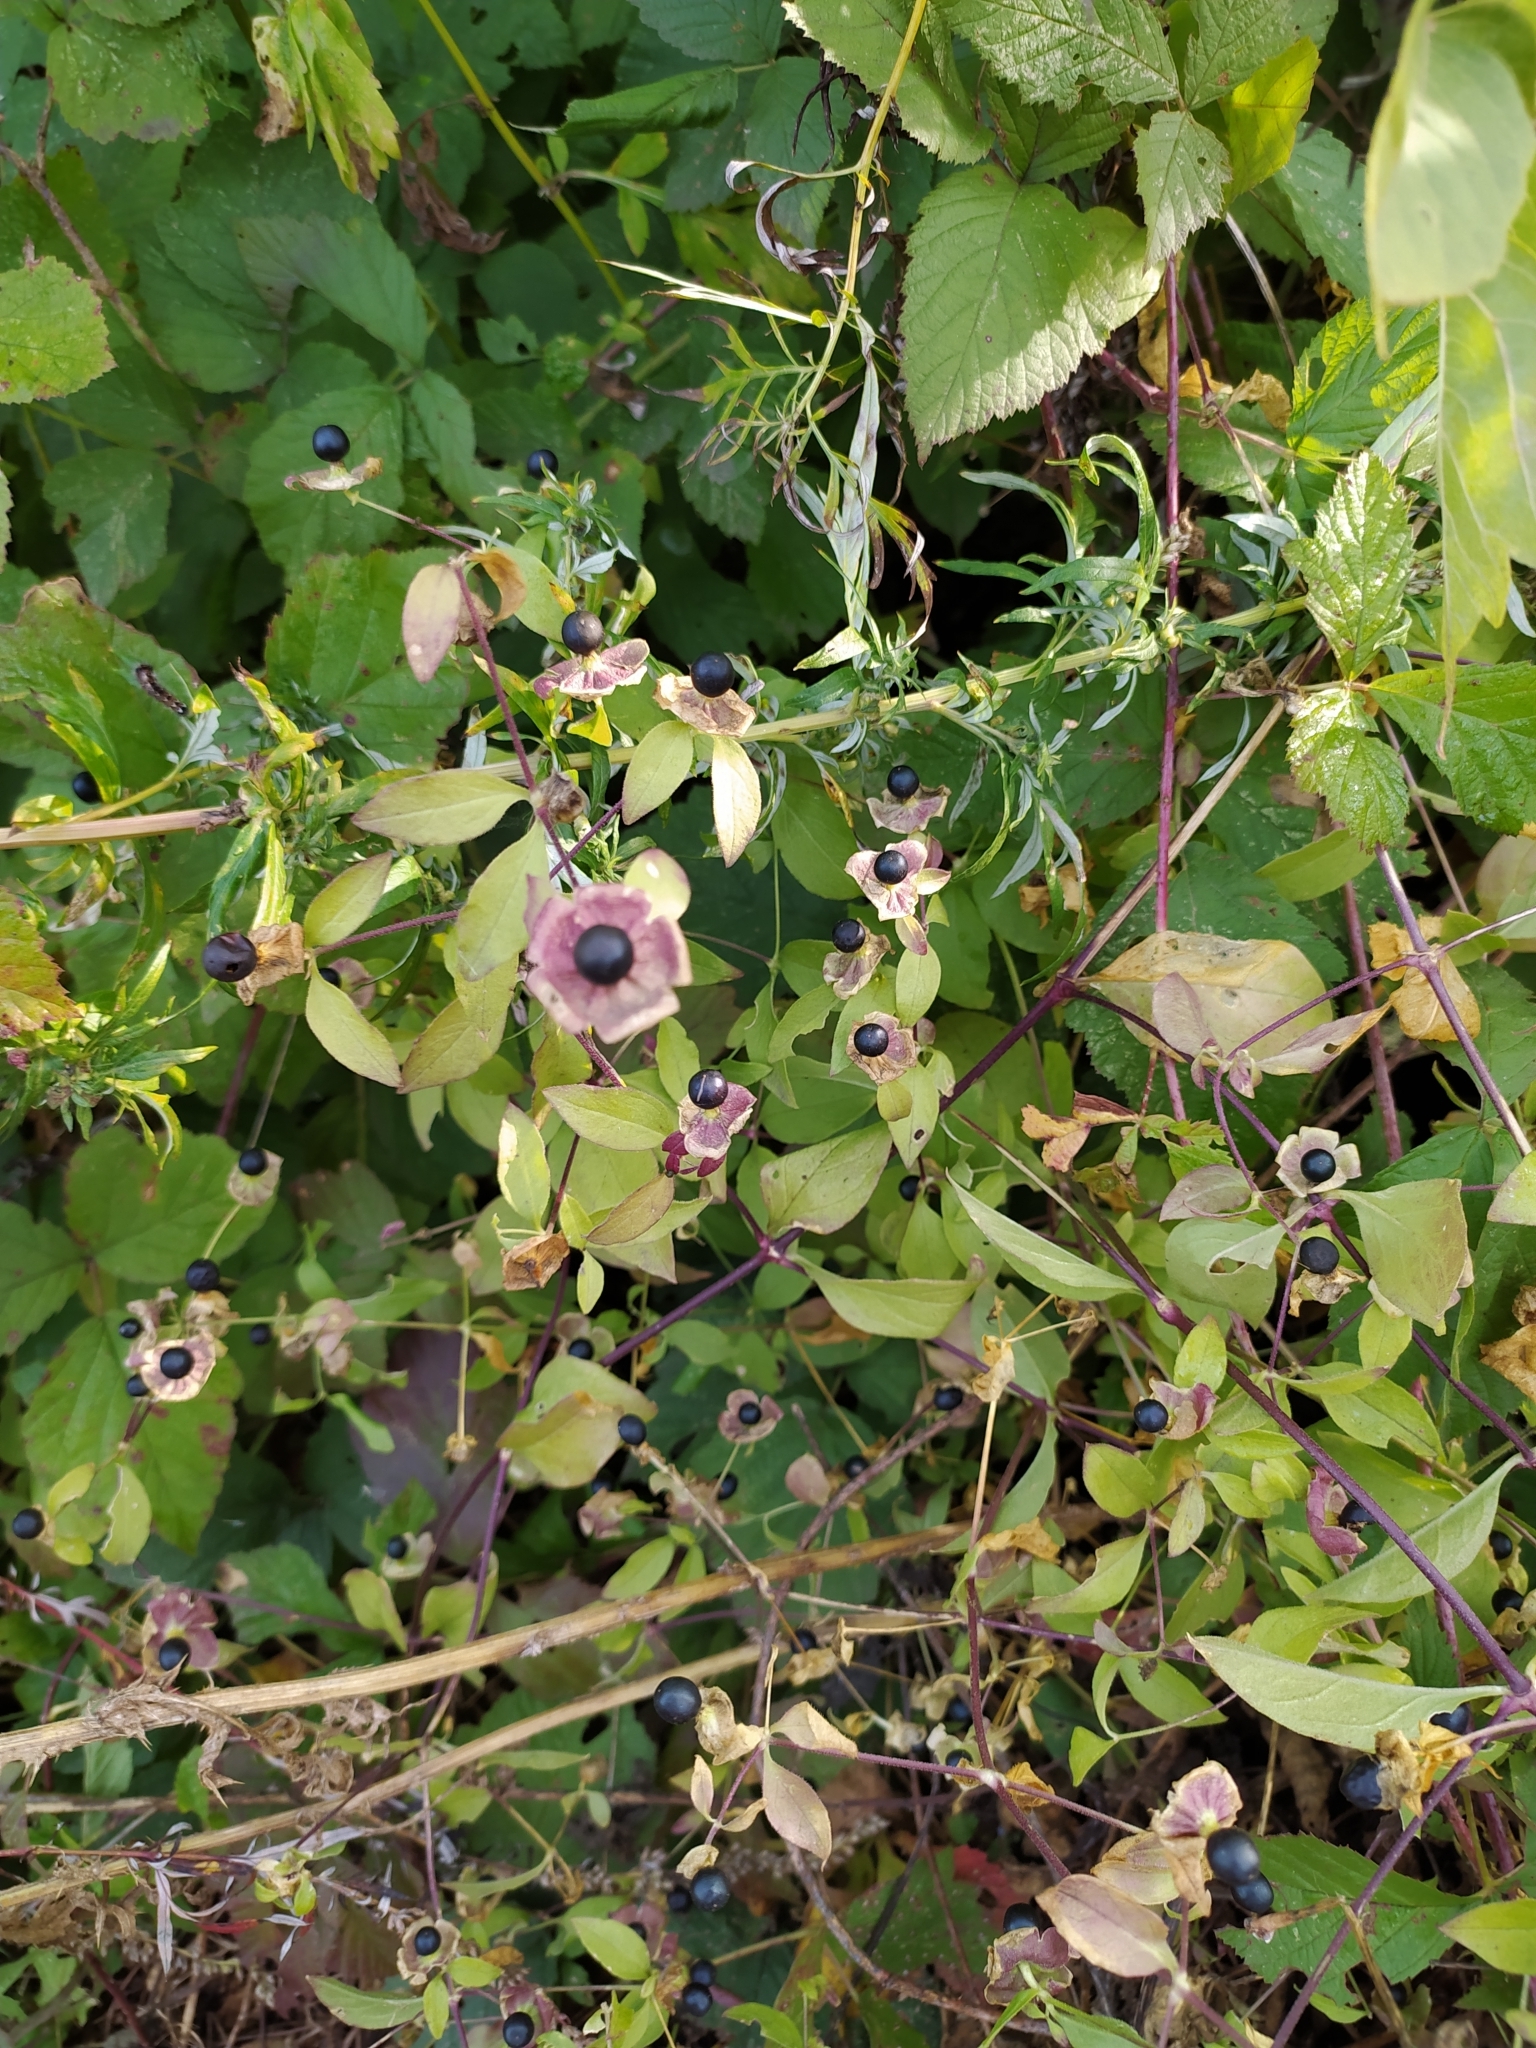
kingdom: Plantae
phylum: Tracheophyta
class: Magnoliopsida
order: Caryophyllales
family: Caryophyllaceae
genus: Silene
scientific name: Silene baccifera
